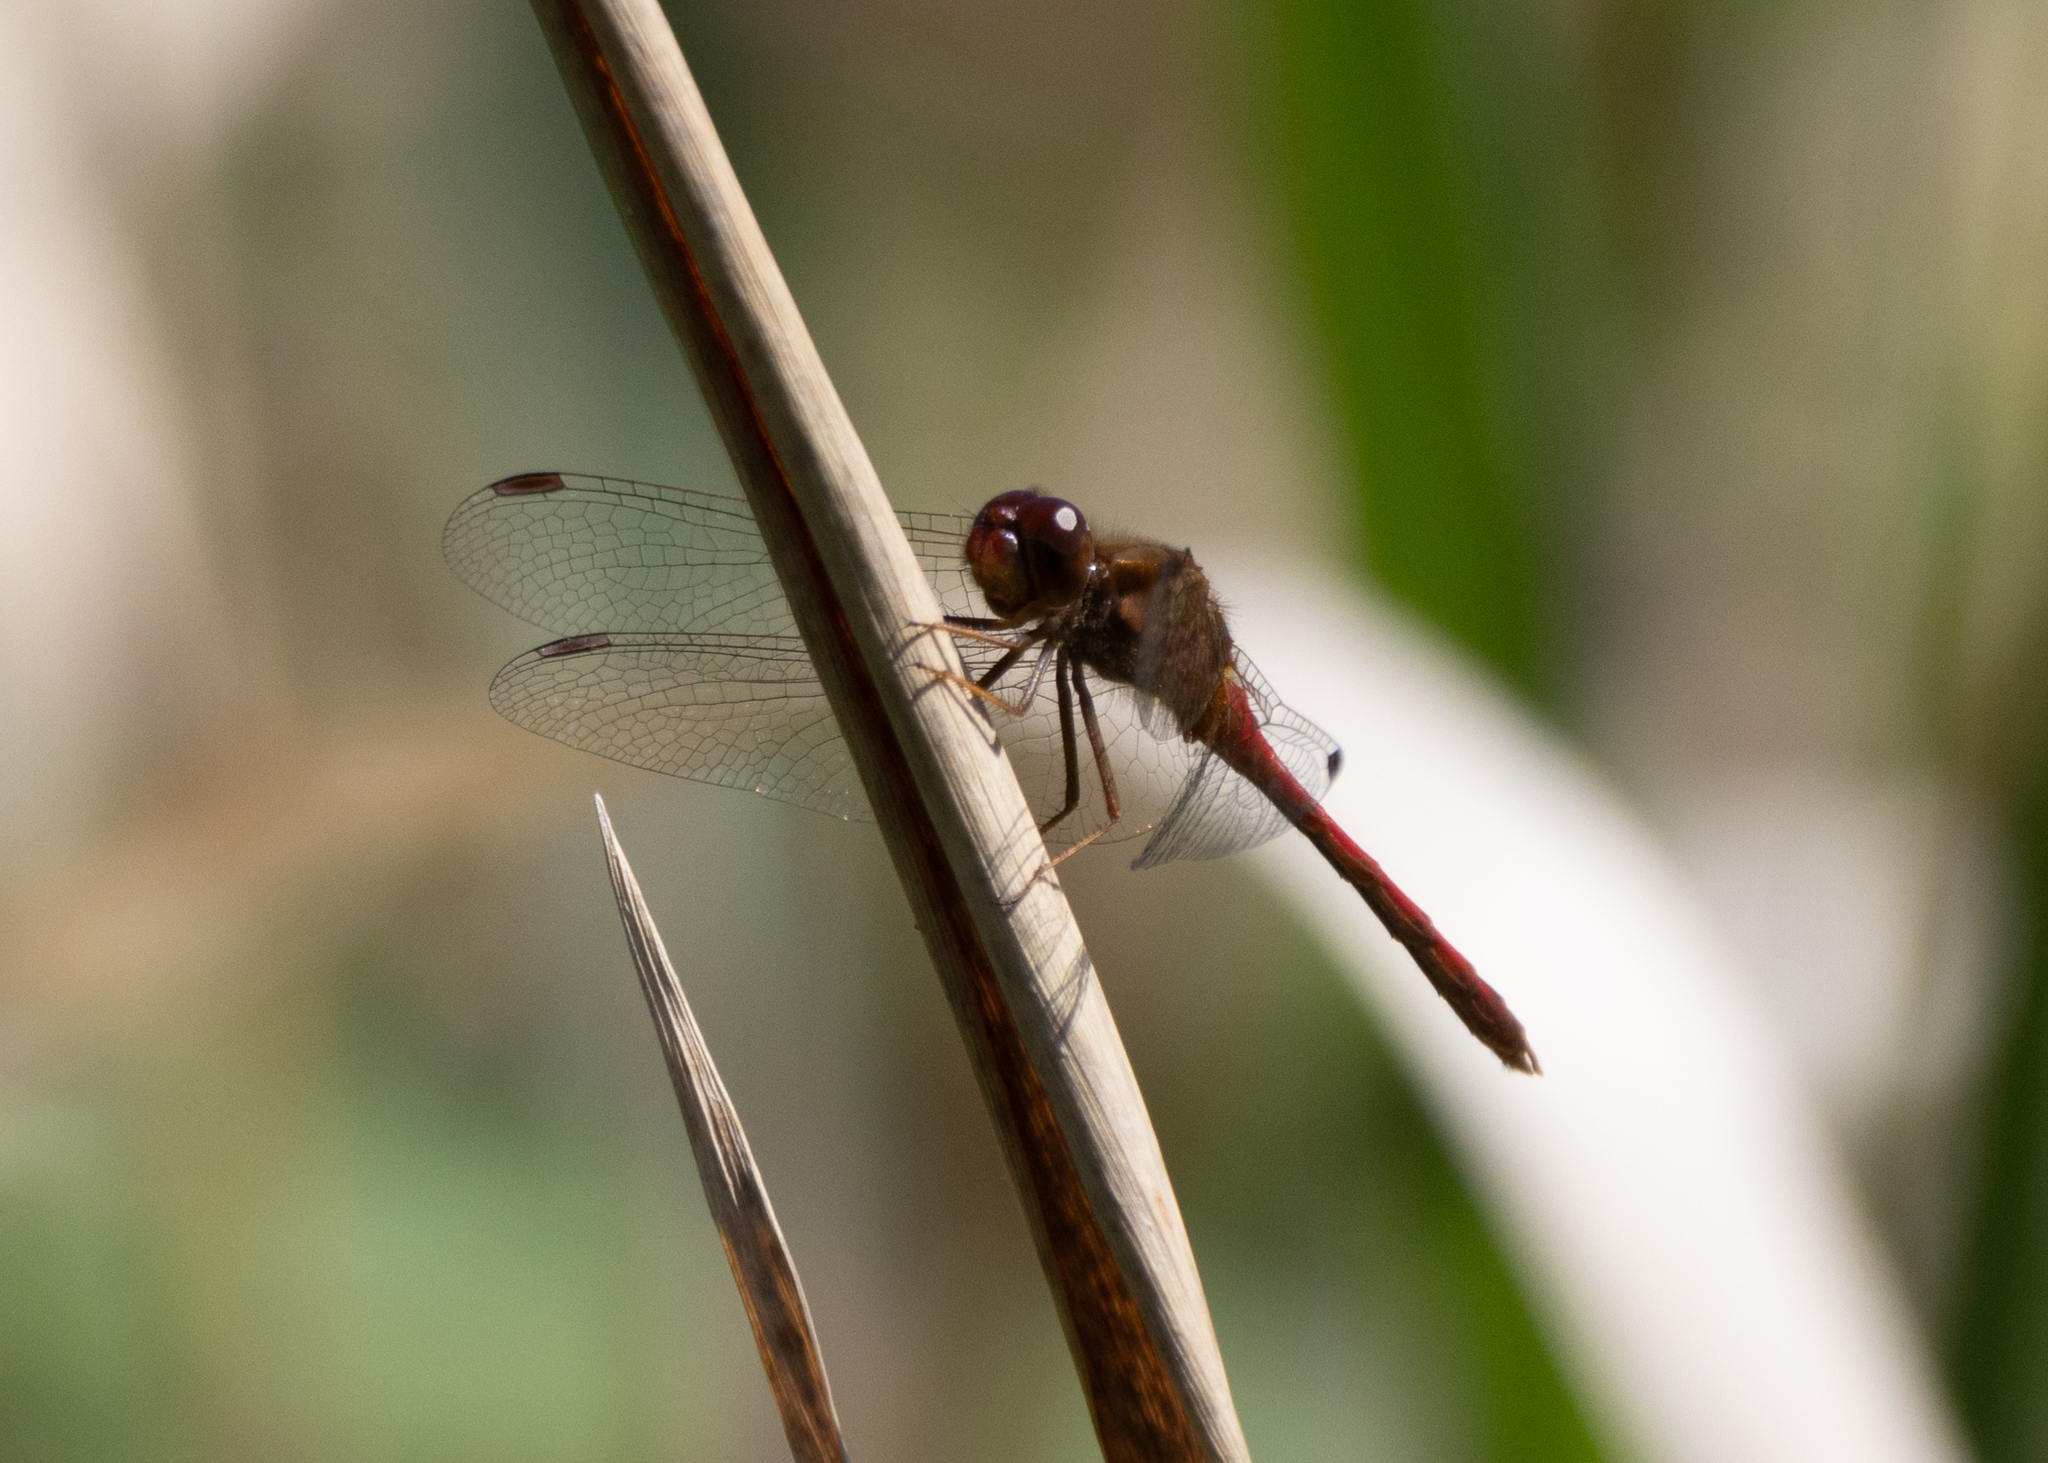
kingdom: Animalia
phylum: Arthropoda
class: Insecta
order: Odonata
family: Libellulidae
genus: Sympetrum
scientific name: Sympetrum vicinum
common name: Autumn meadowhawk
